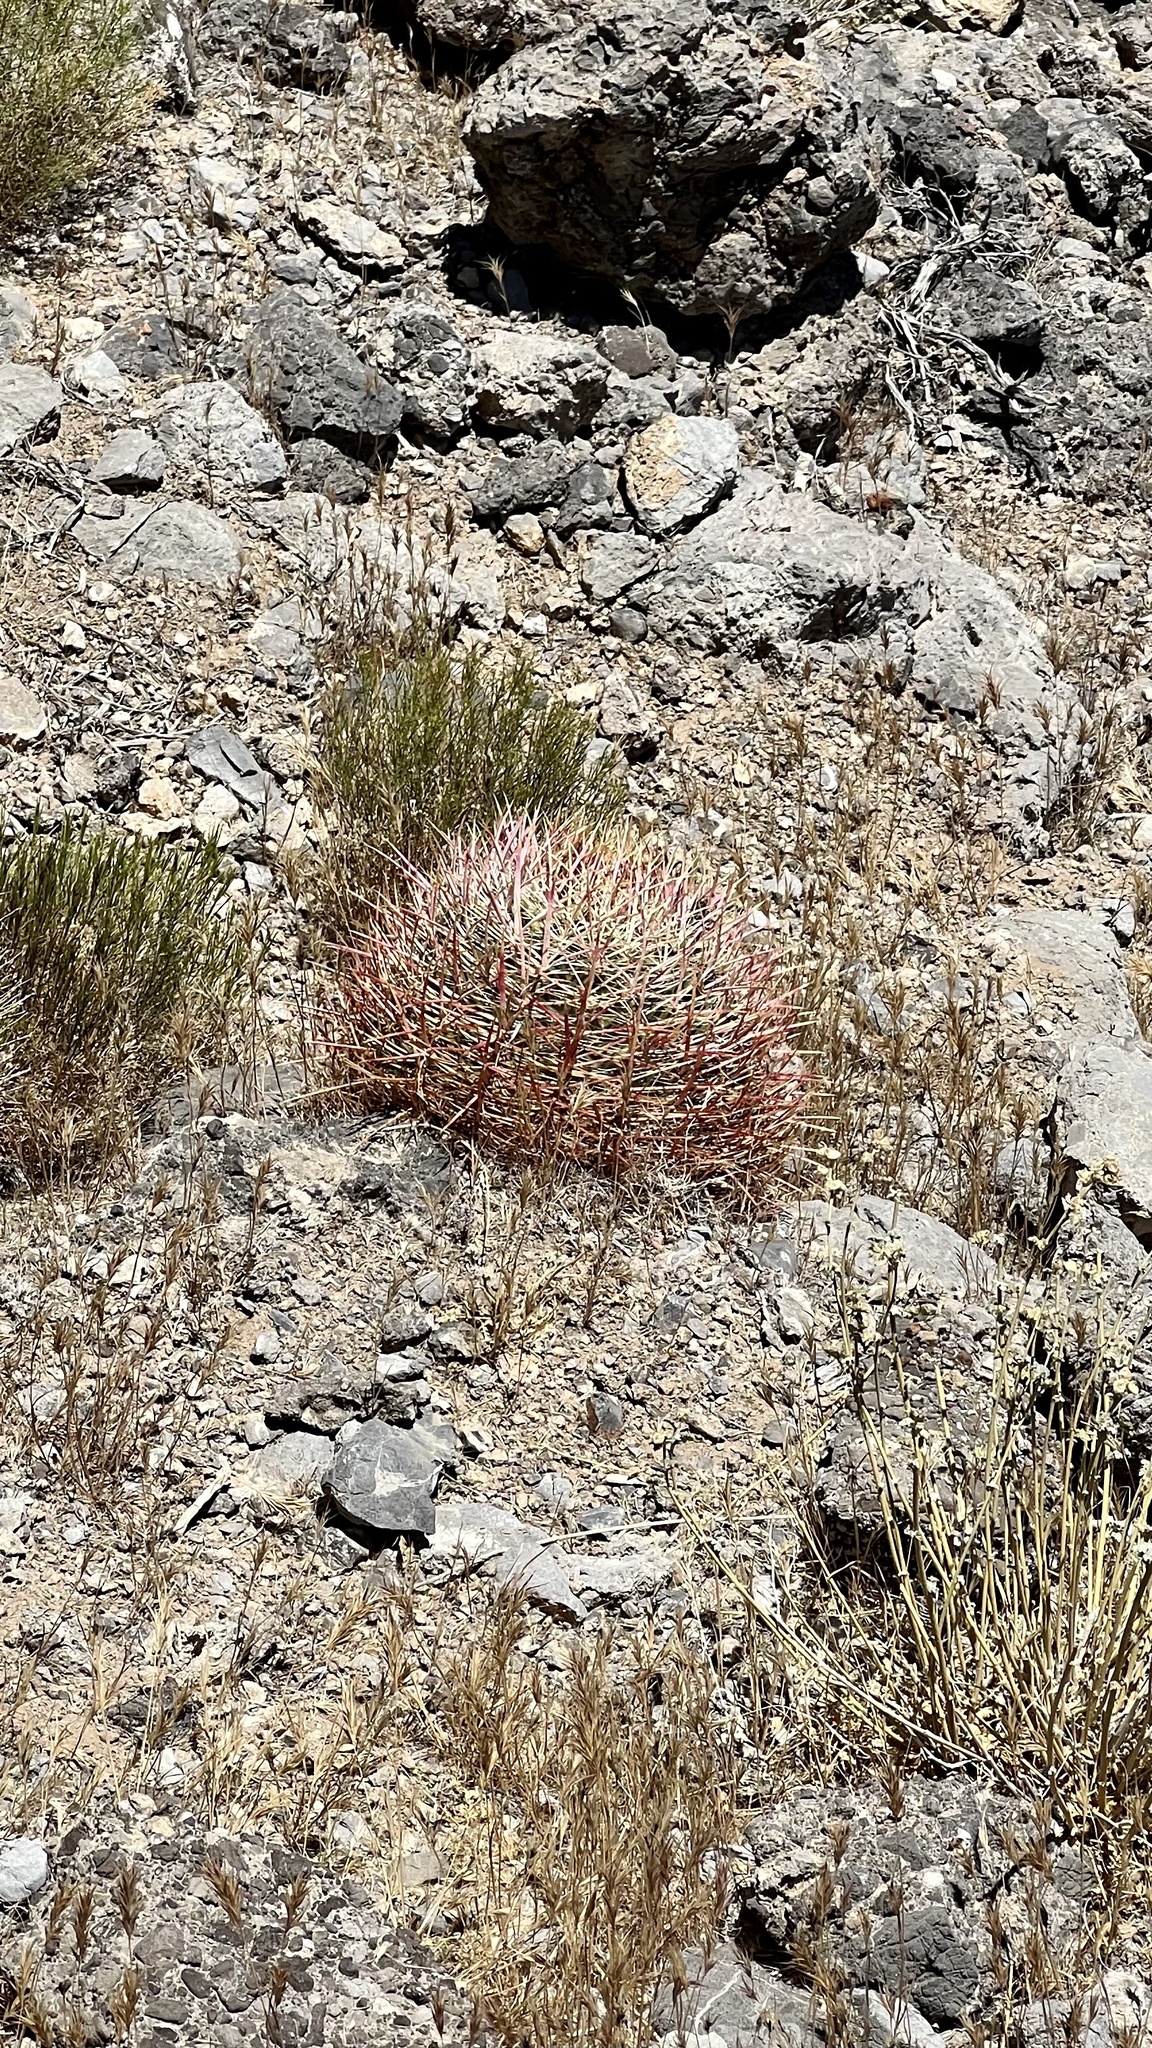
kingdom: Plantae
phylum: Tracheophyta
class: Magnoliopsida
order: Caryophyllales
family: Cactaceae
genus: Ferocactus
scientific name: Ferocactus cylindraceus
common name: California barrel cactus
